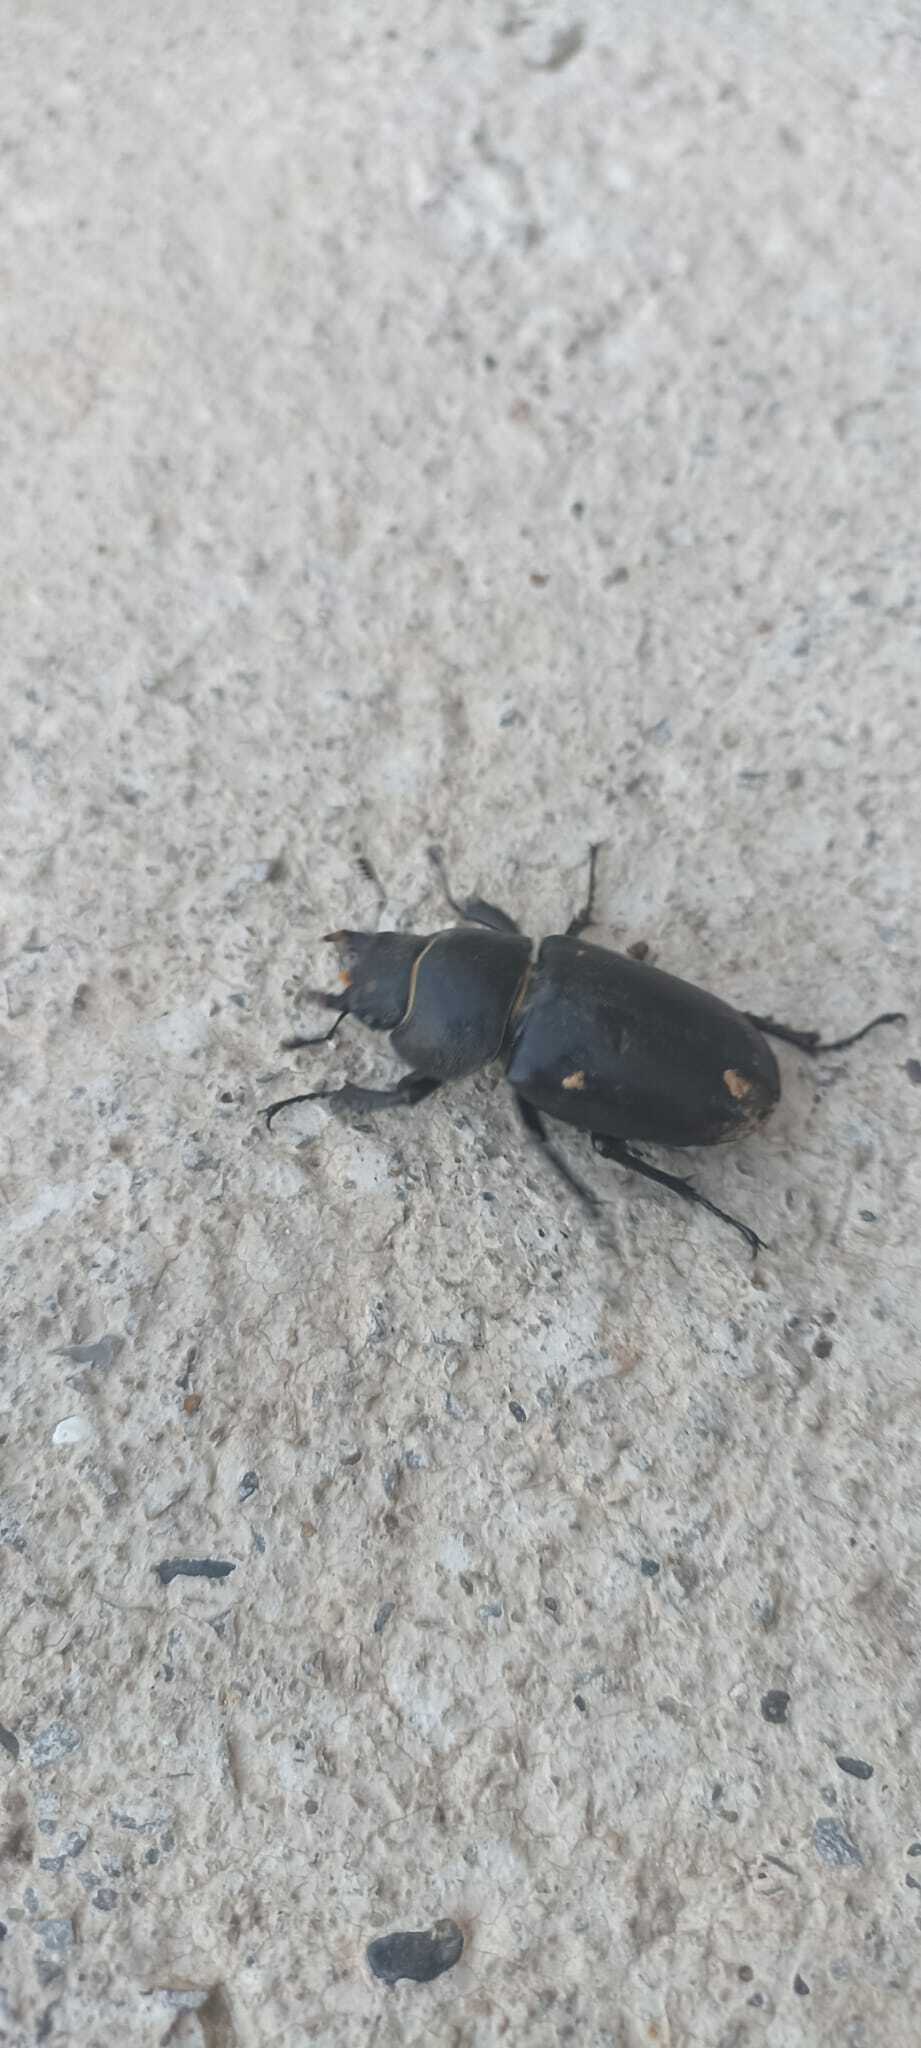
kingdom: Animalia
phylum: Arthropoda
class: Insecta
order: Coleoptera
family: Lucanidae
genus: Lucanus
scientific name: Lucanus cervus
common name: Stag beetle
